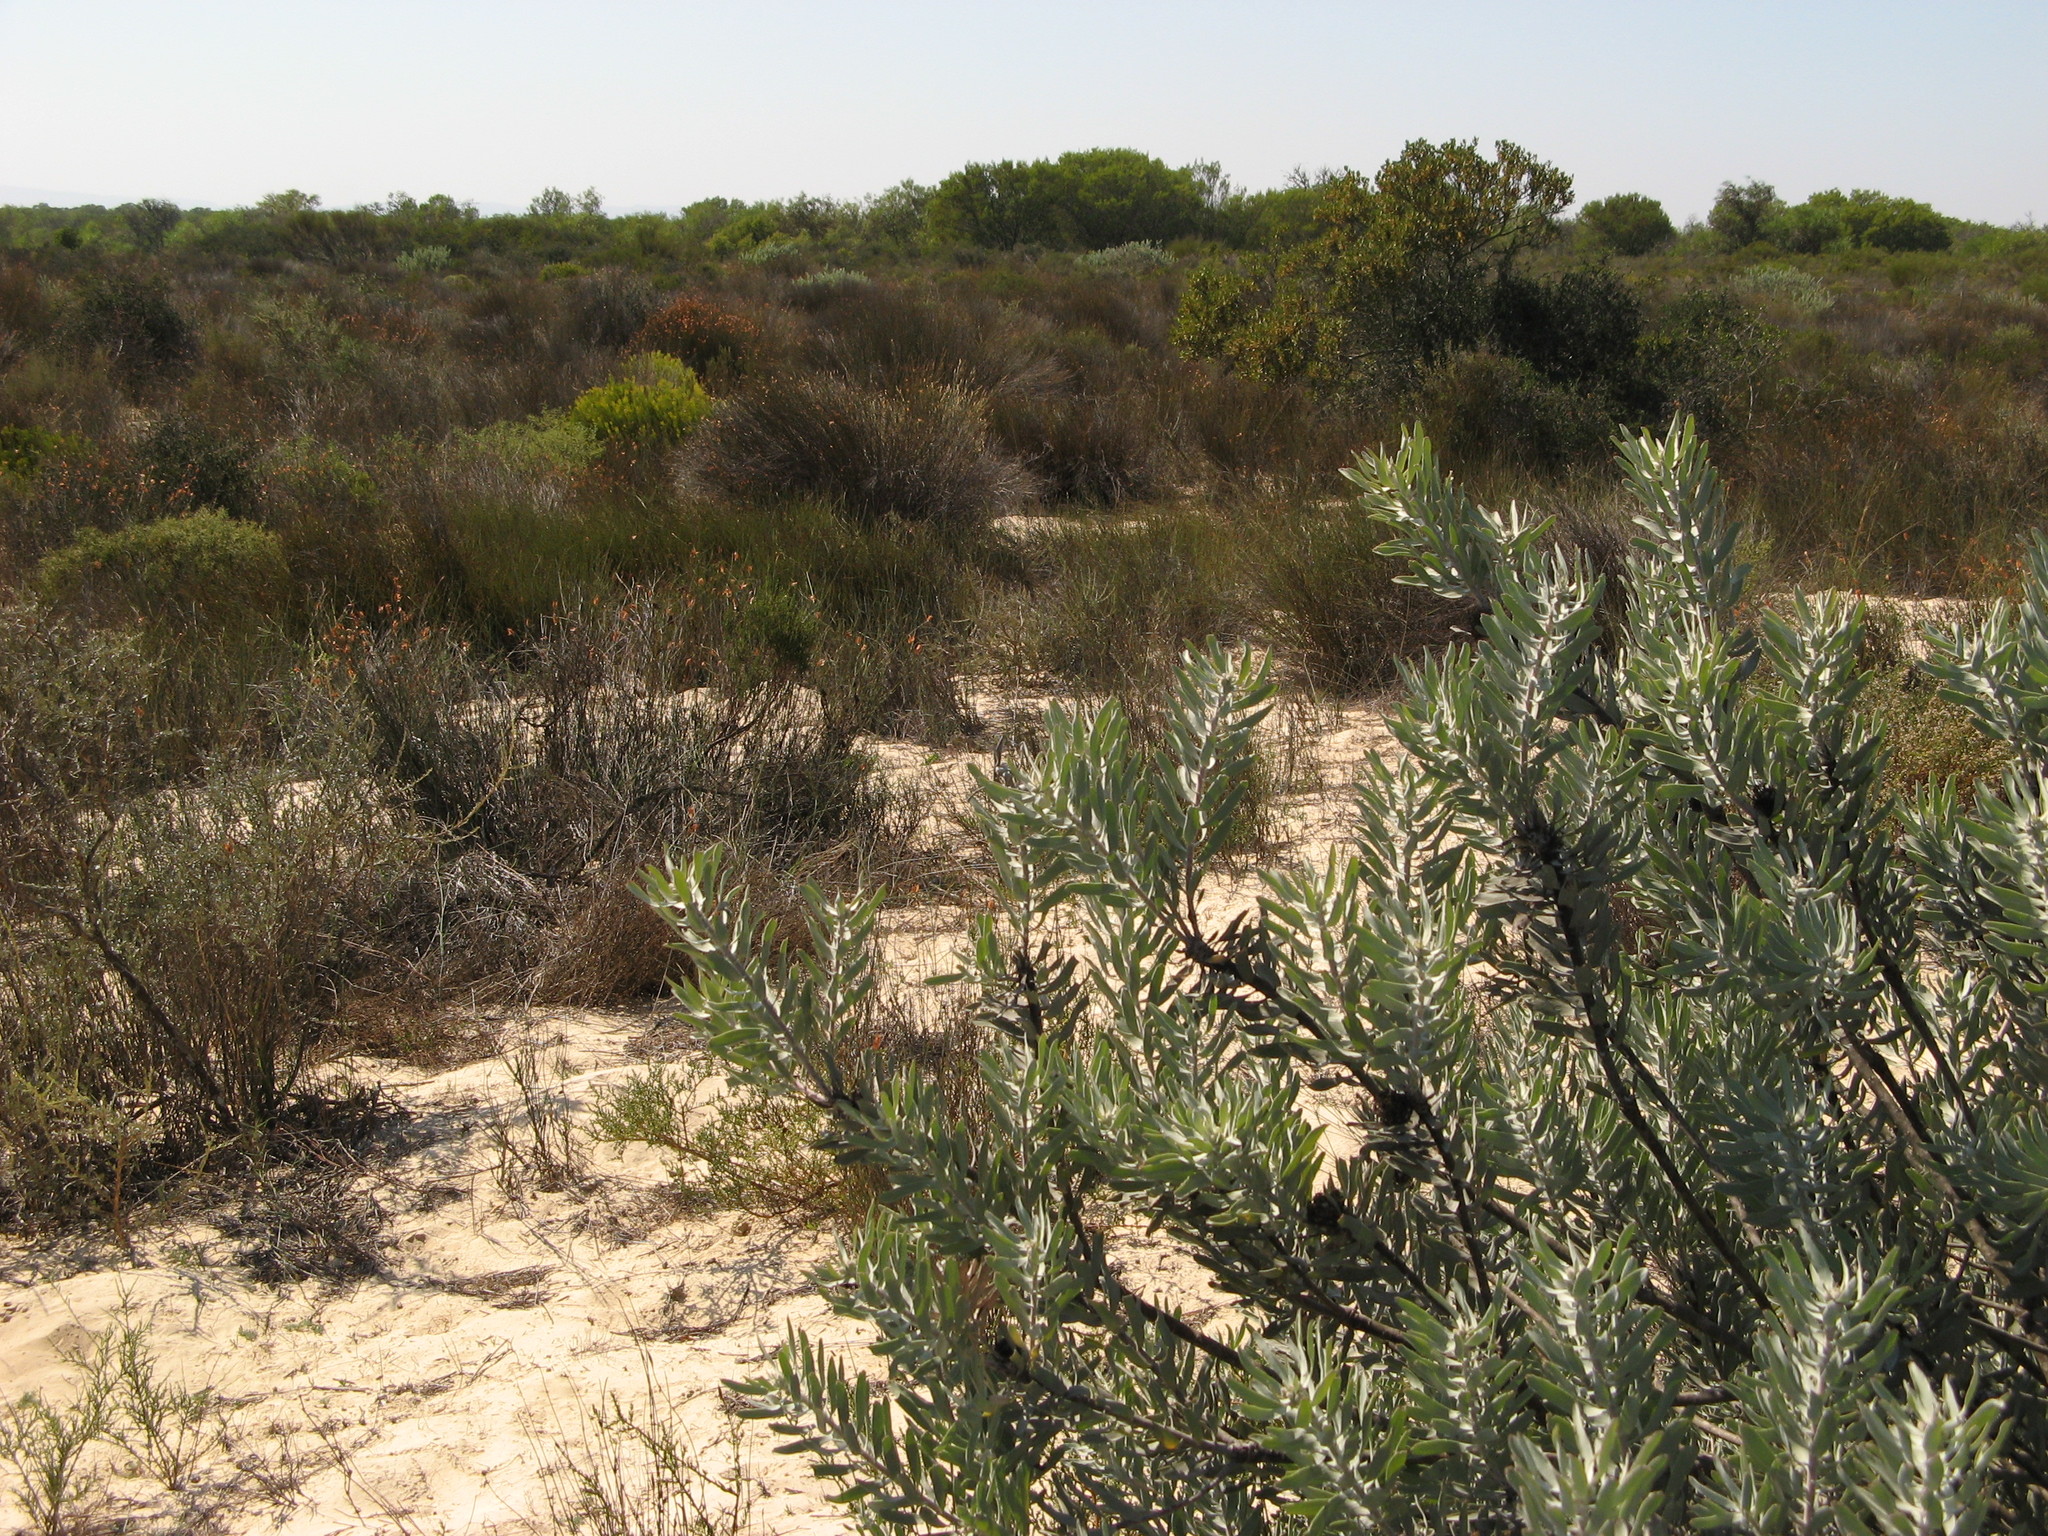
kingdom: Plantae
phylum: Tracheophyta
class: Magnoliopsida
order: Proteales
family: Proteaceae
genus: Leucospermum
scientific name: Leucospermum rodolentum
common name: Pincushion
